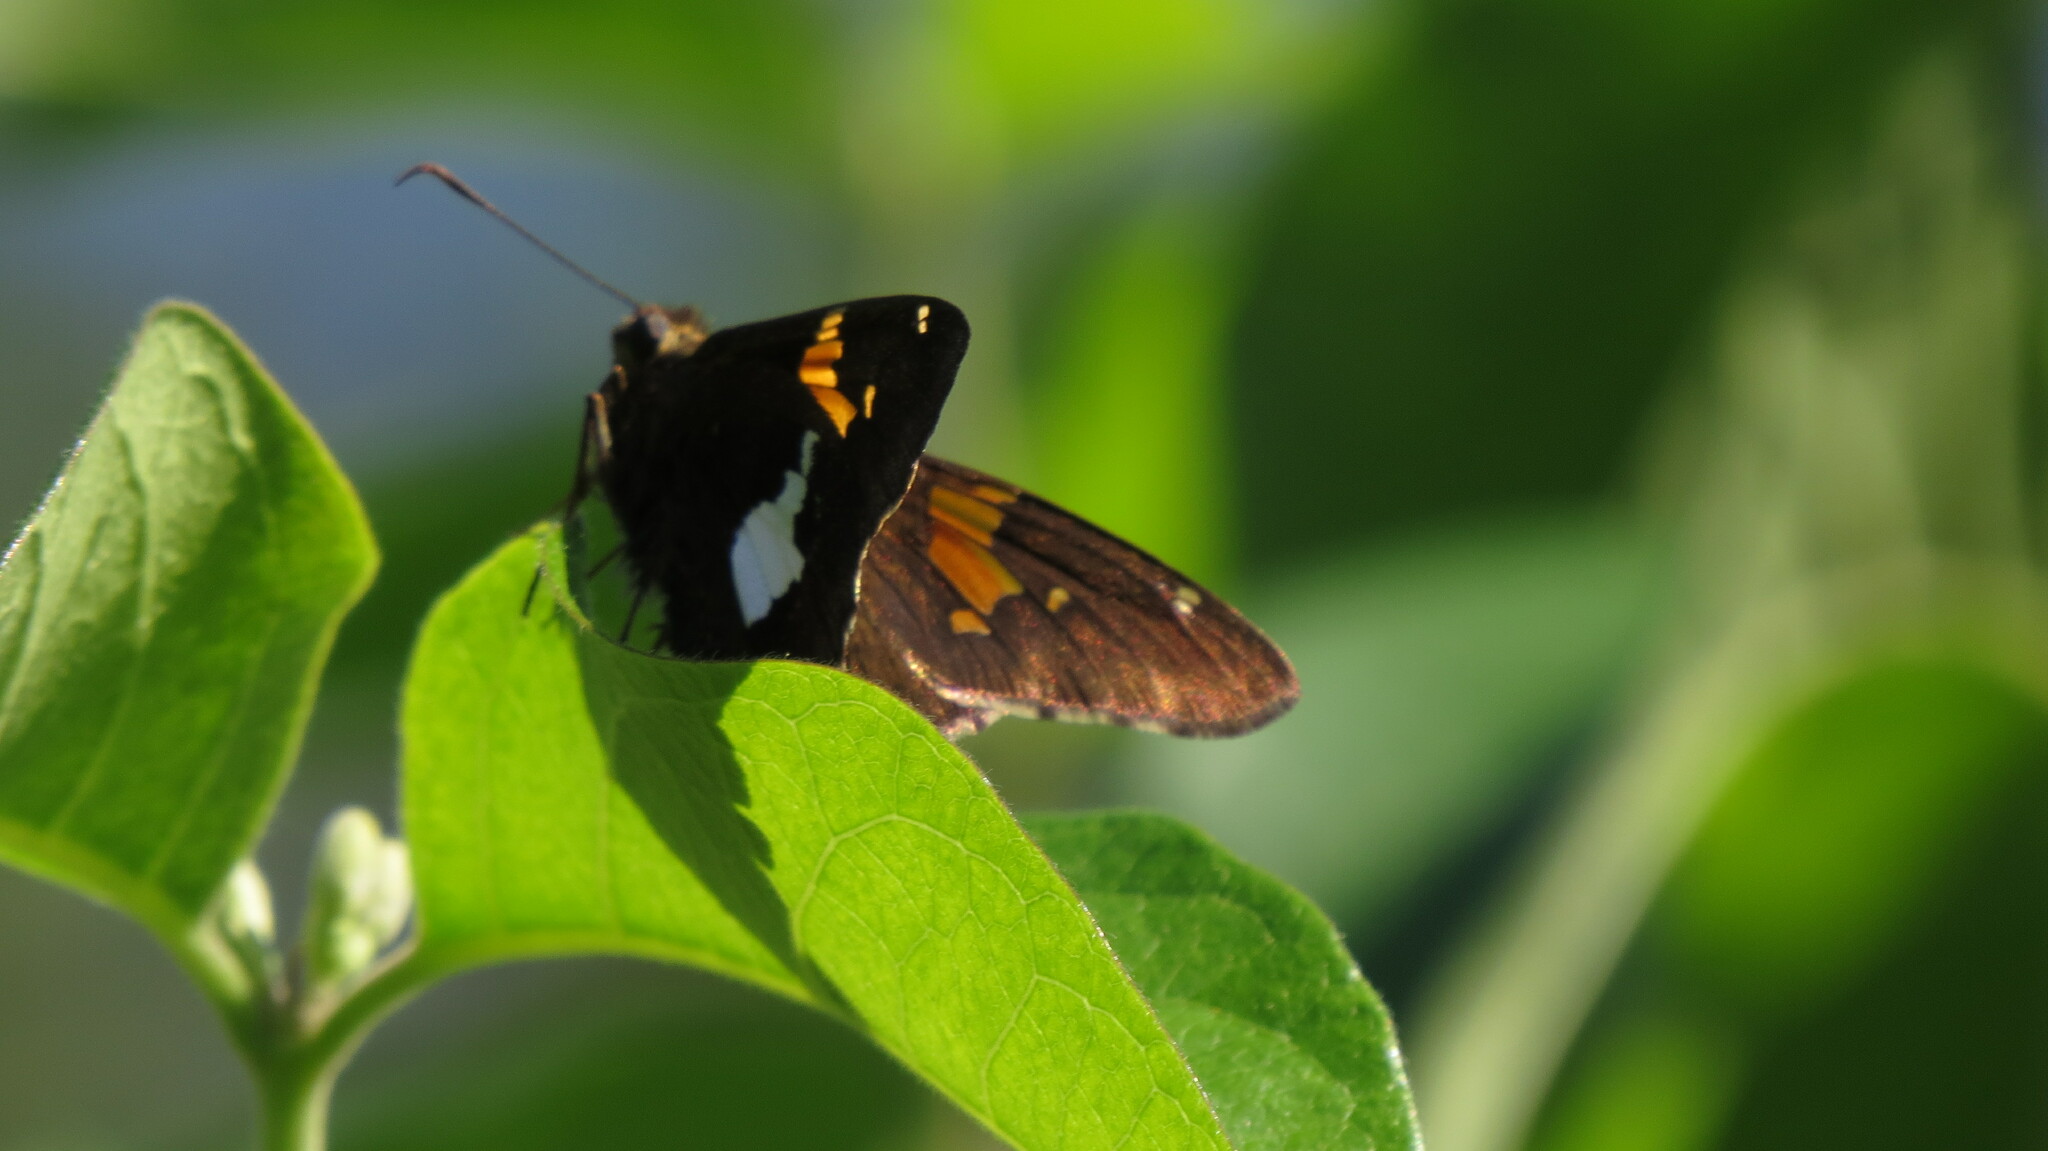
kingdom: Animalia
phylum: Arthropoda
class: Insecta
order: Lepidoptera
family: Hesperiidae
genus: Epargyreus
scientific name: Epargyreus clarus
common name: Silver-spotted skipper
